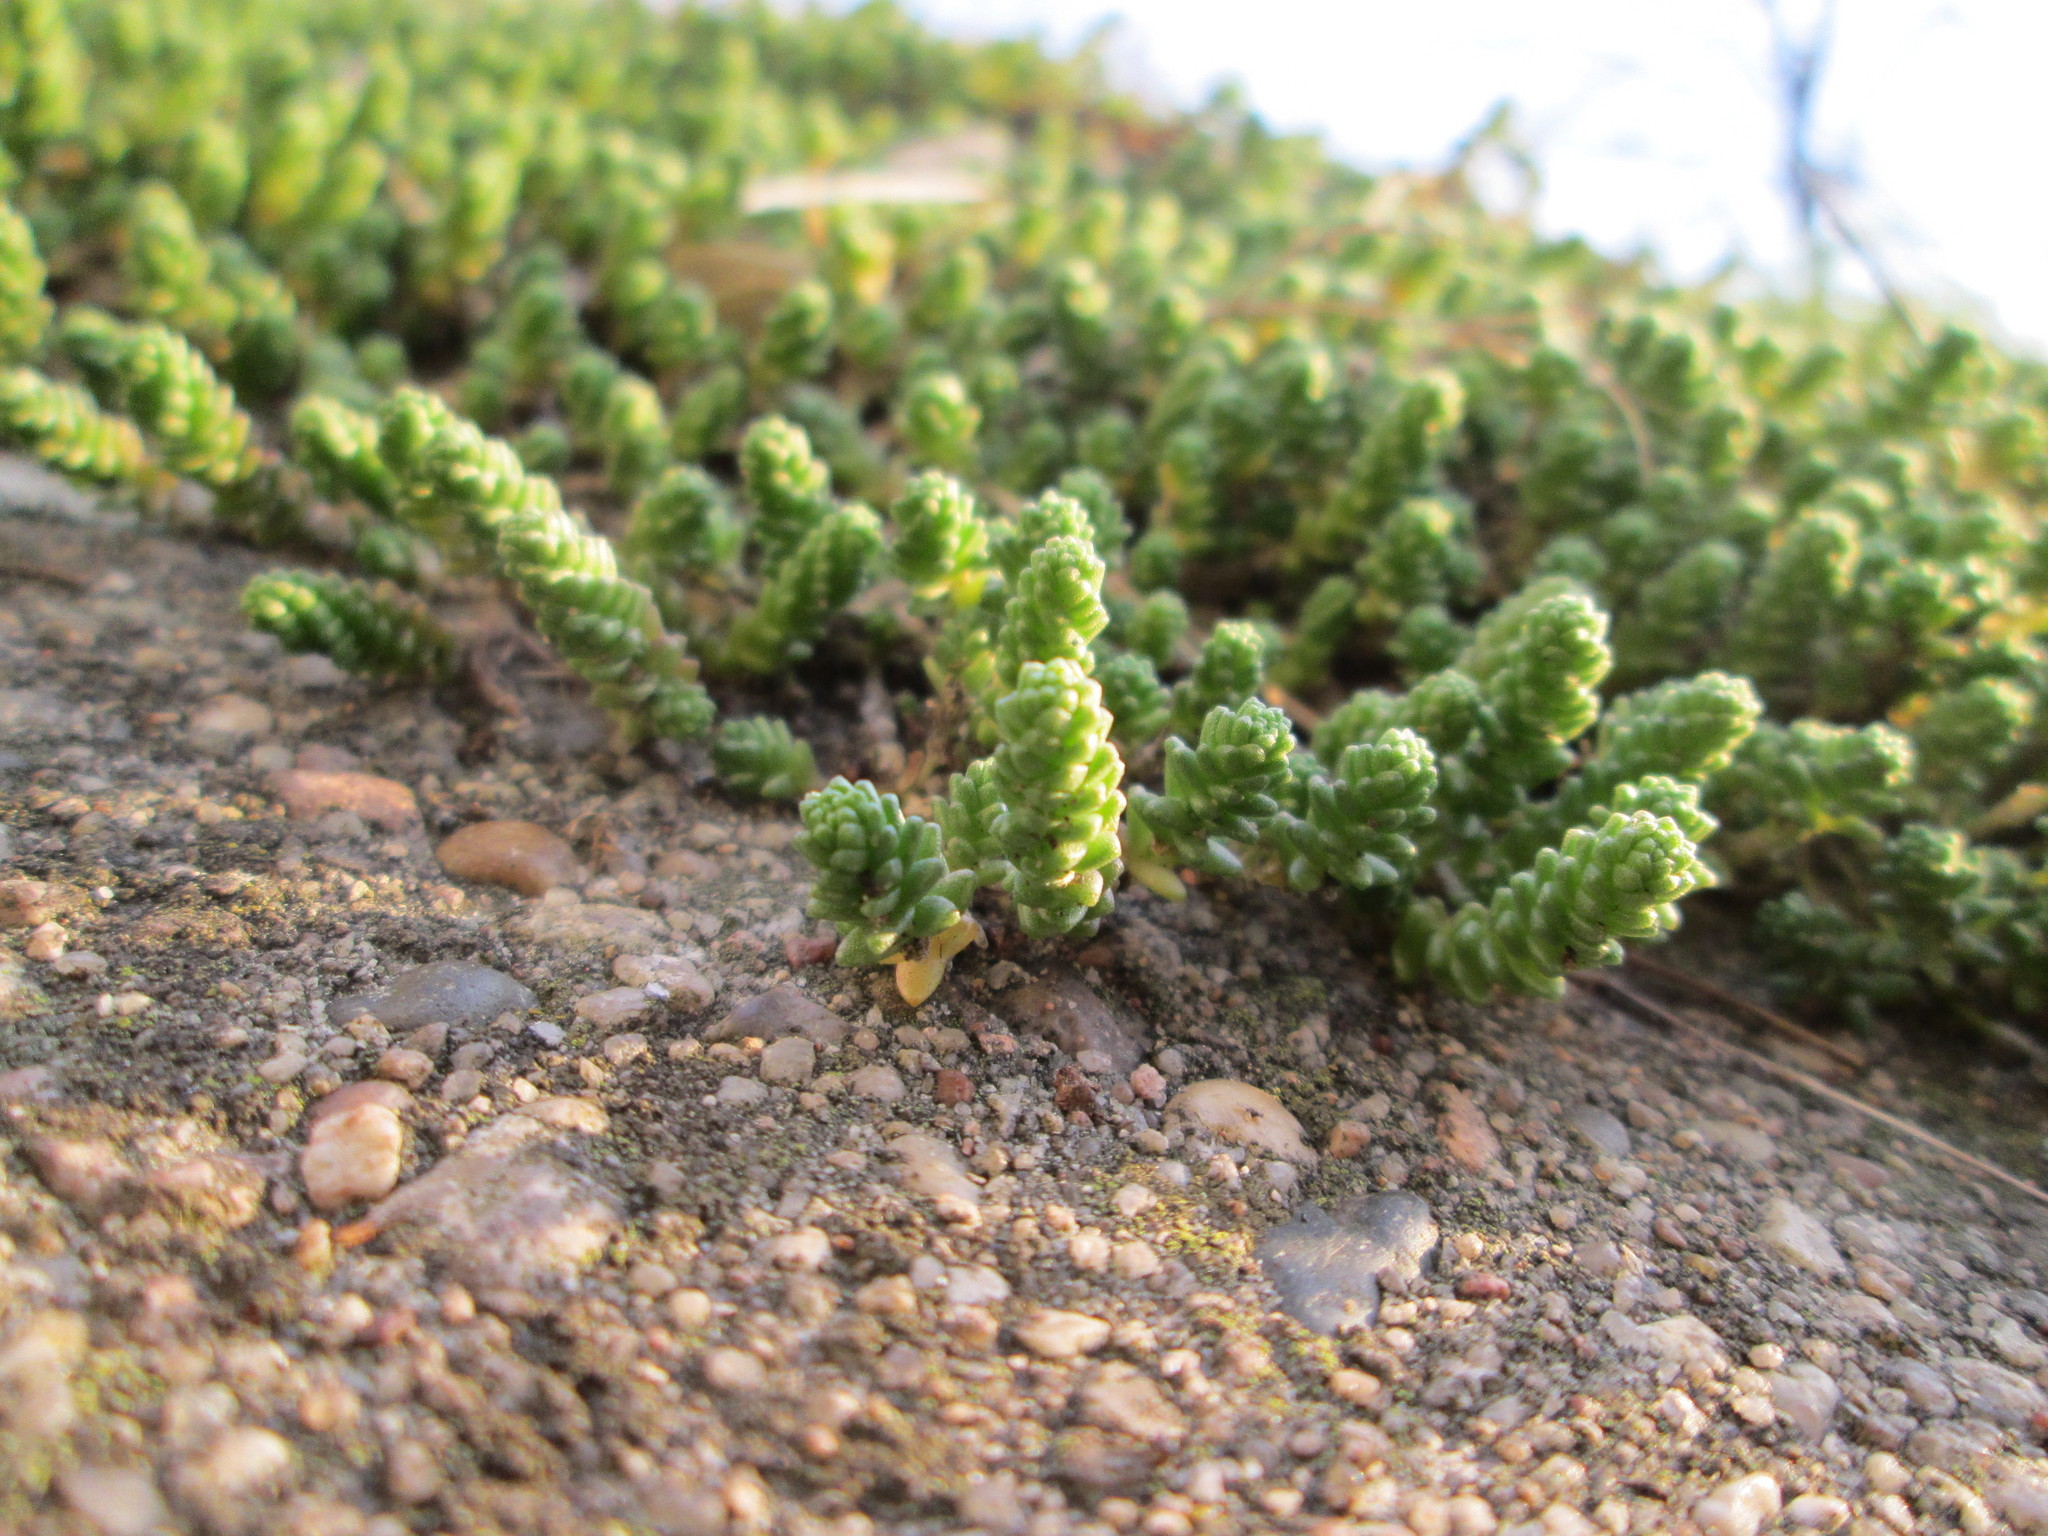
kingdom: Plantae
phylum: Tracheophyta
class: Magnoliopsida
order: Saxifragales
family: Crassulaceae
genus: Sedum
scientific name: Sedum acre
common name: Biting stonecrop
